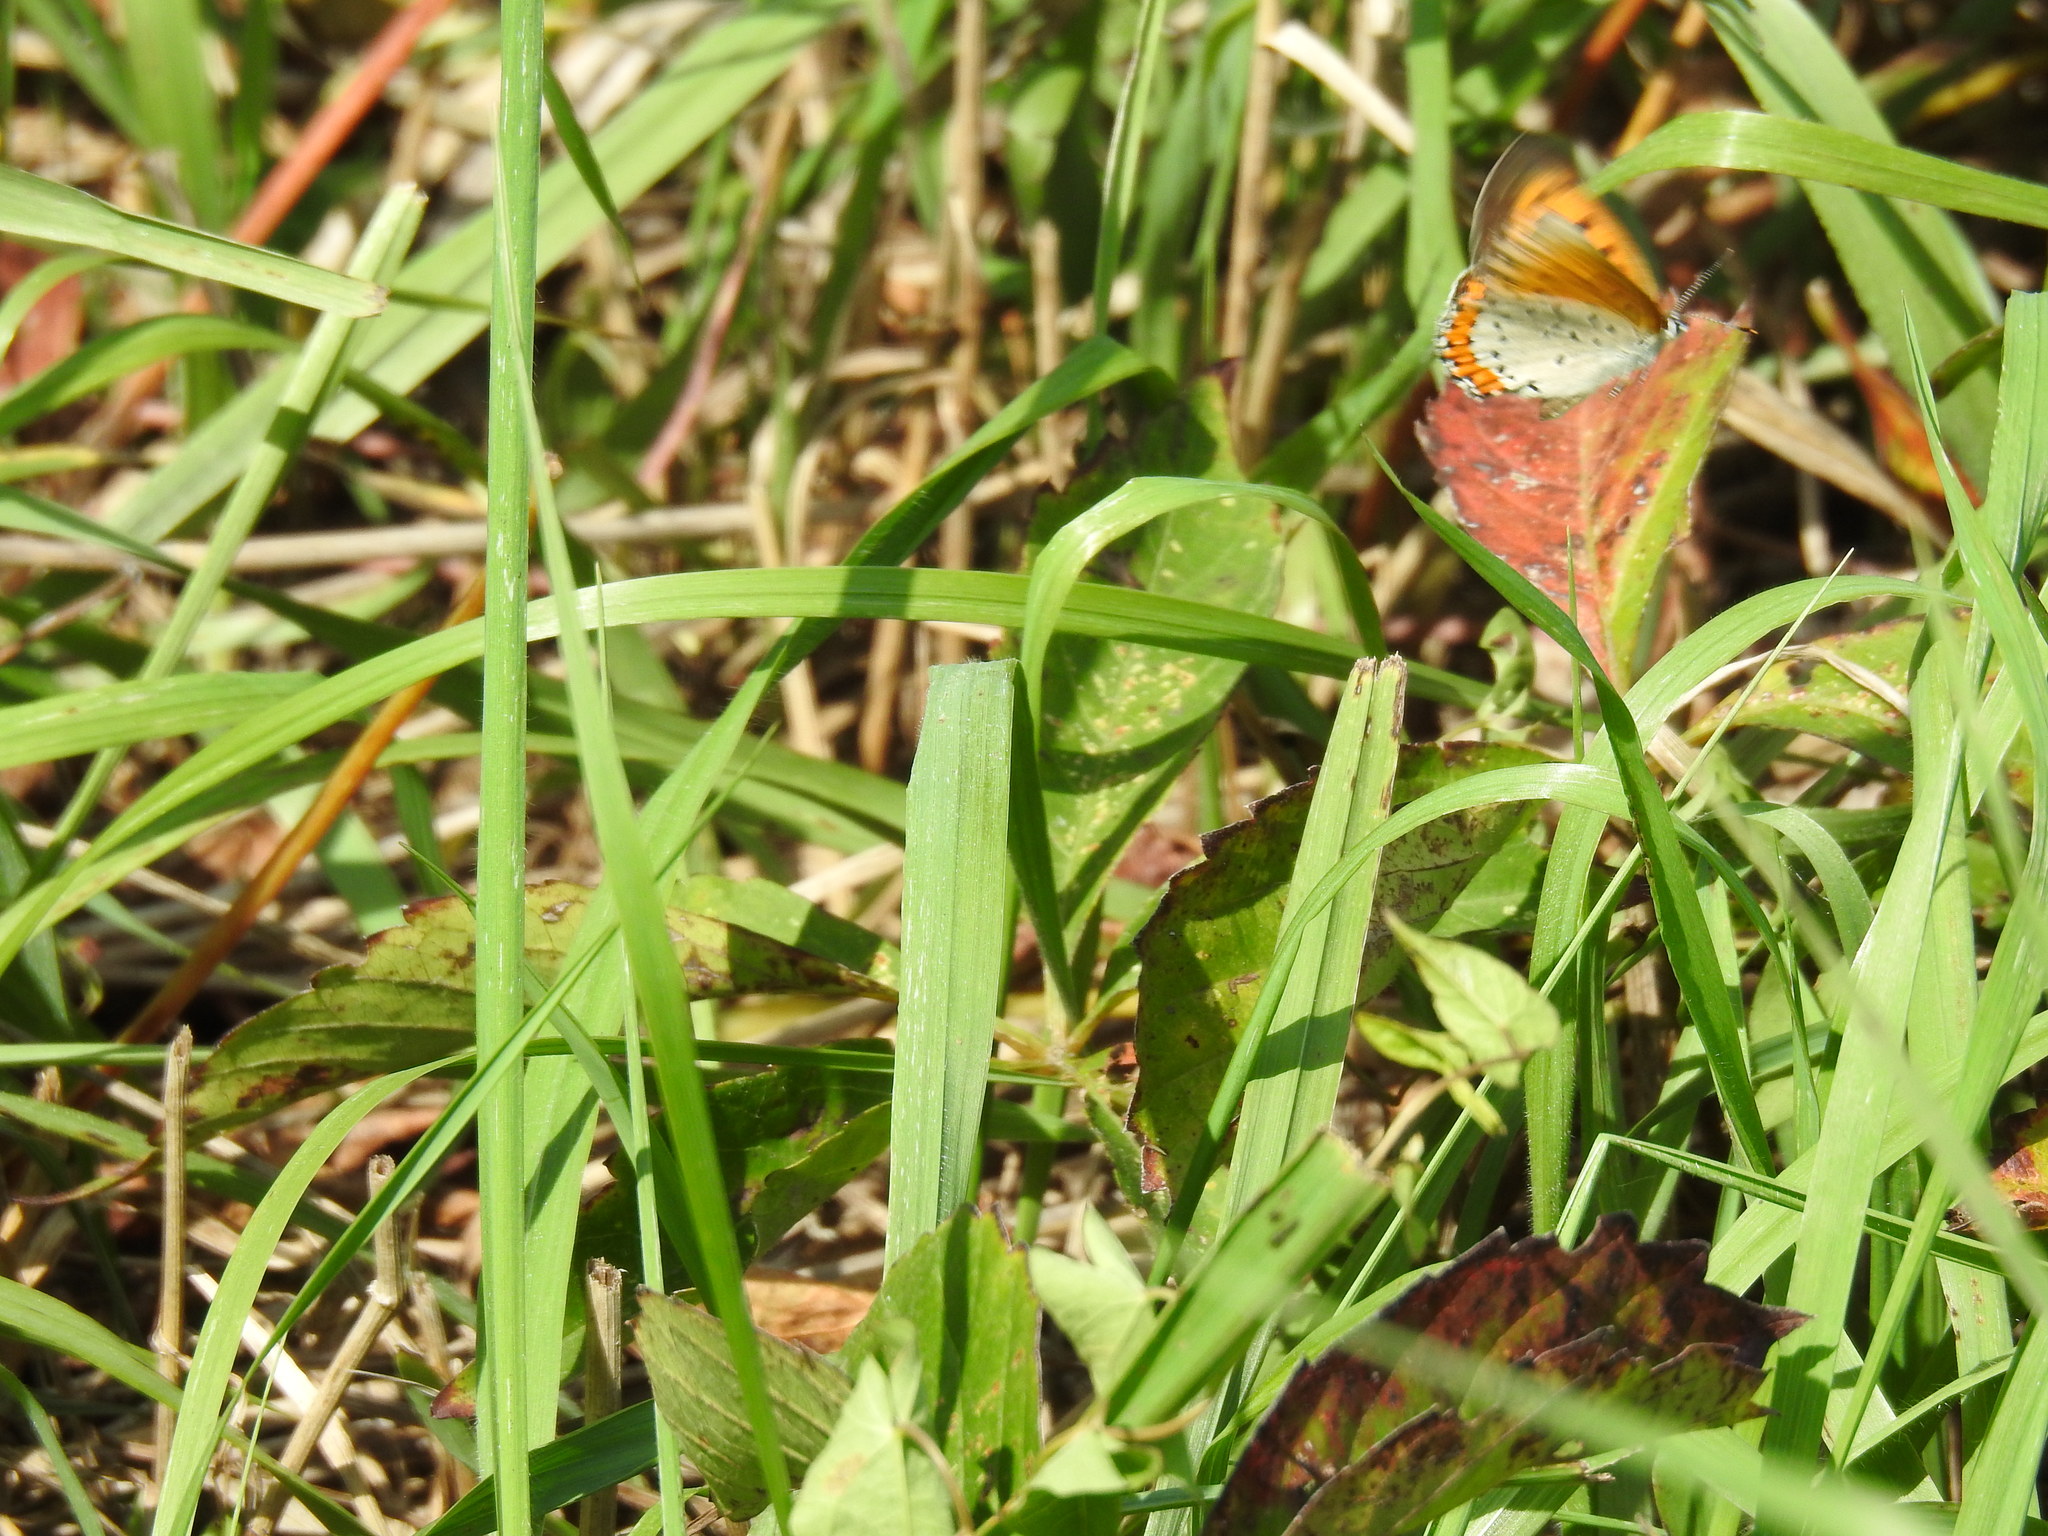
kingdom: Animalia
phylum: Arthropoda
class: Insecta
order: Lepidoptera
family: Lycaenidae
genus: Tharsalea
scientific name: Tharsalea hyllus
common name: Bronze copper
